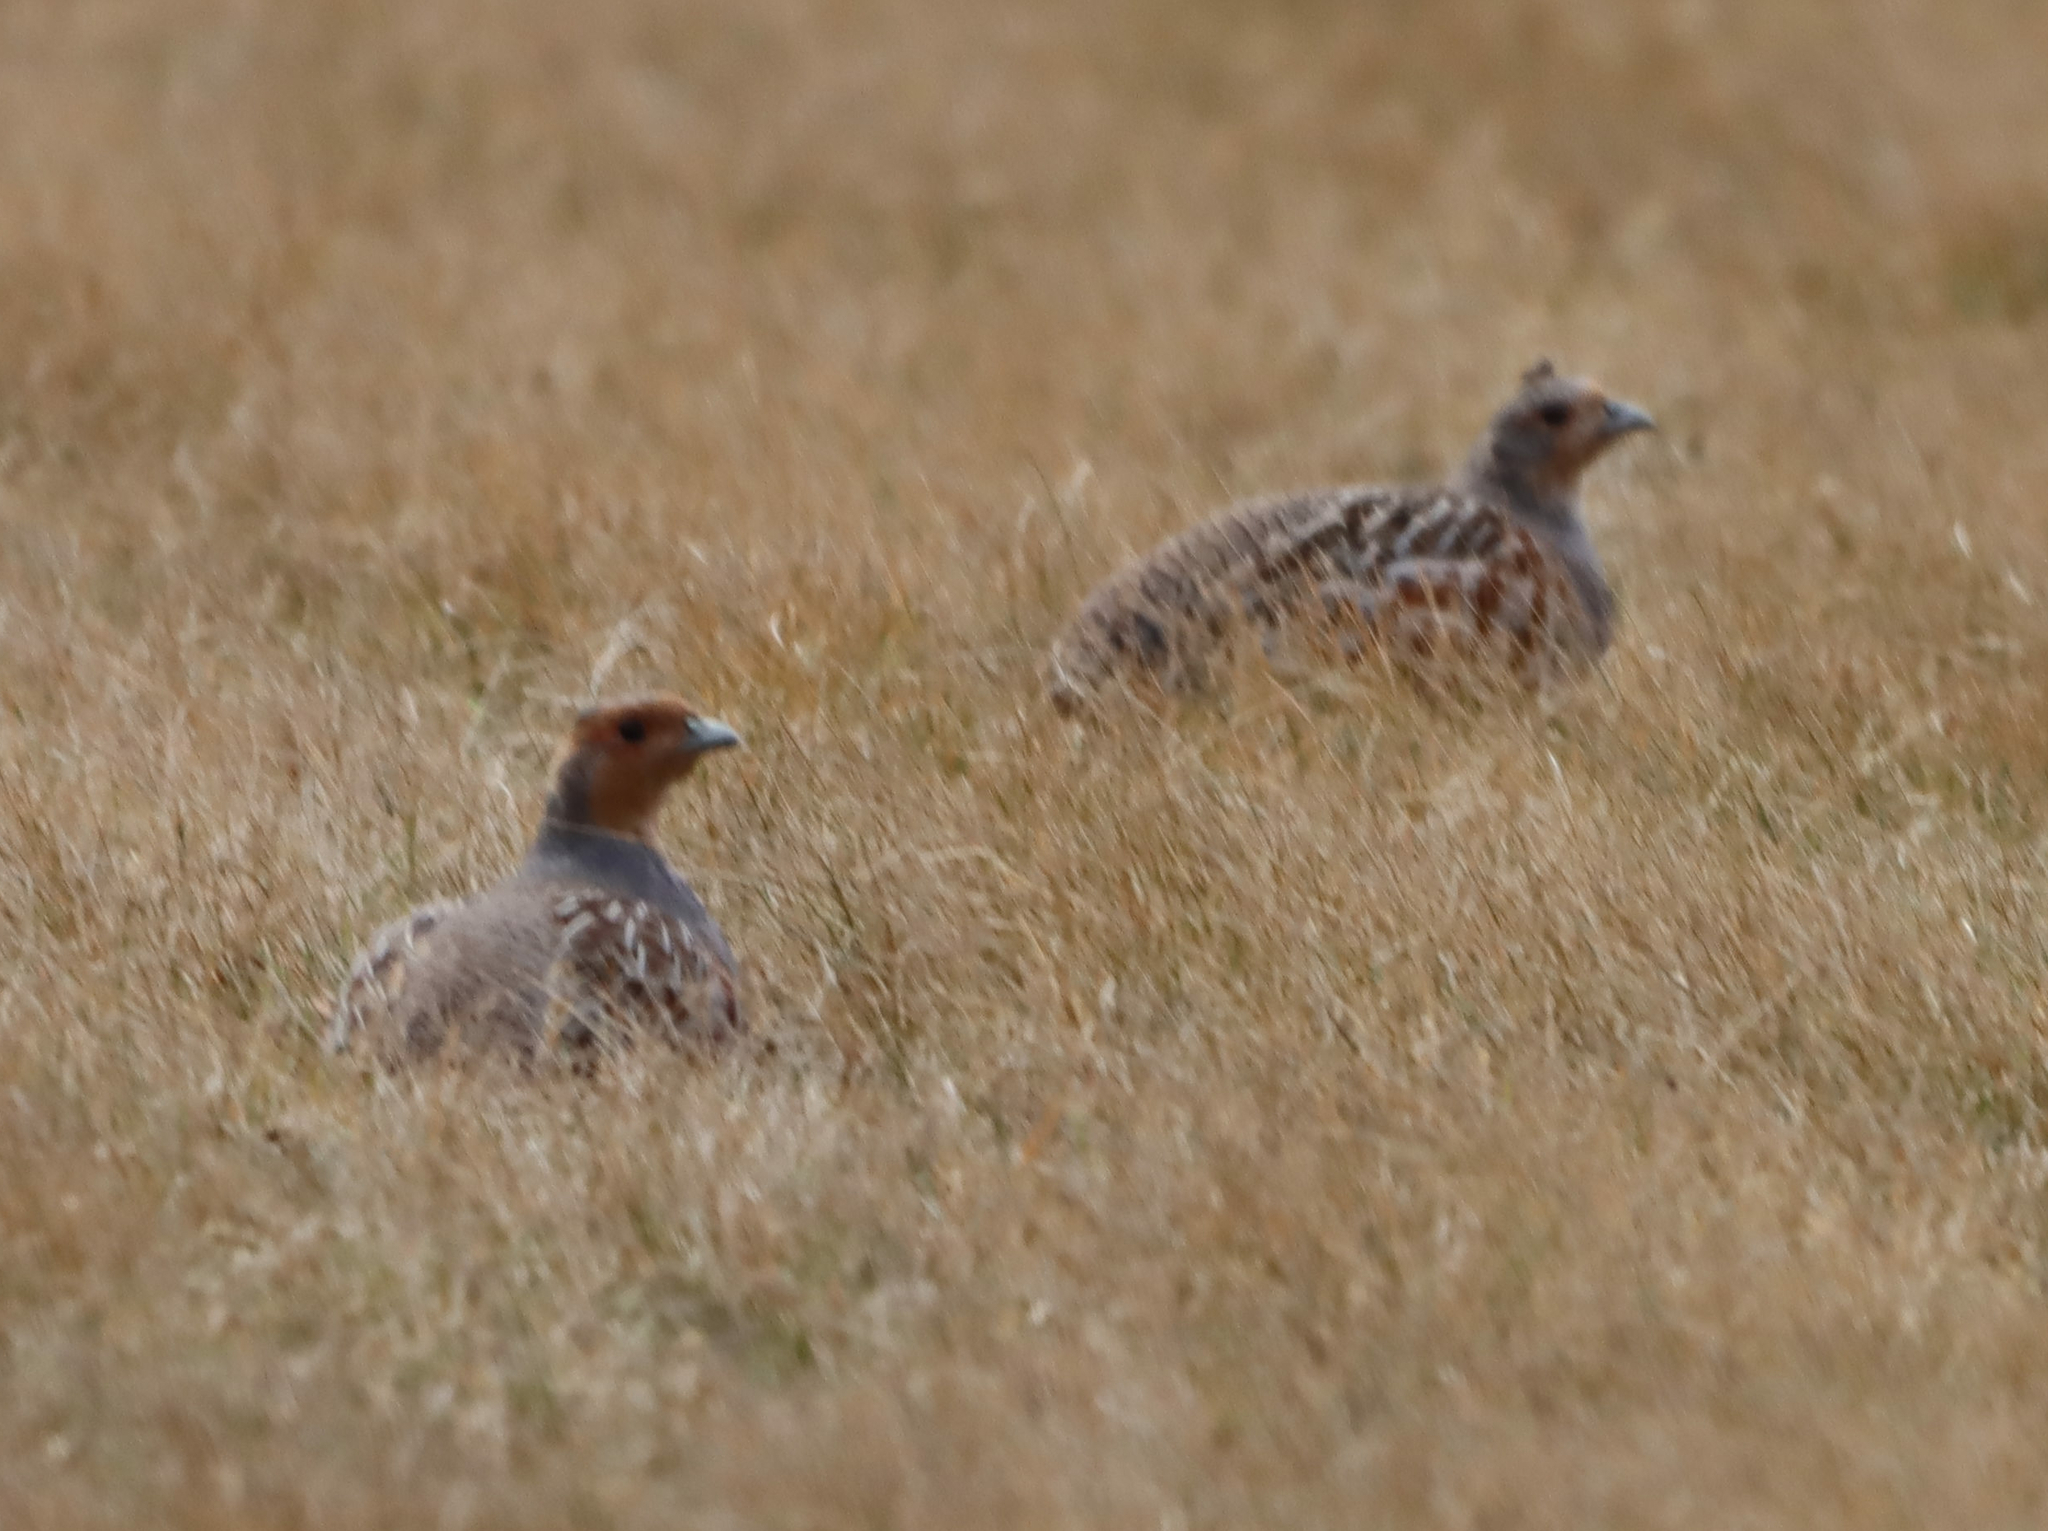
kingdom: Animalia
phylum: Chordata
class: Aves
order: Galliformes
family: Phasianidae
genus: Perdix
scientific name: Perdix perdix
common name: Grey partridge
